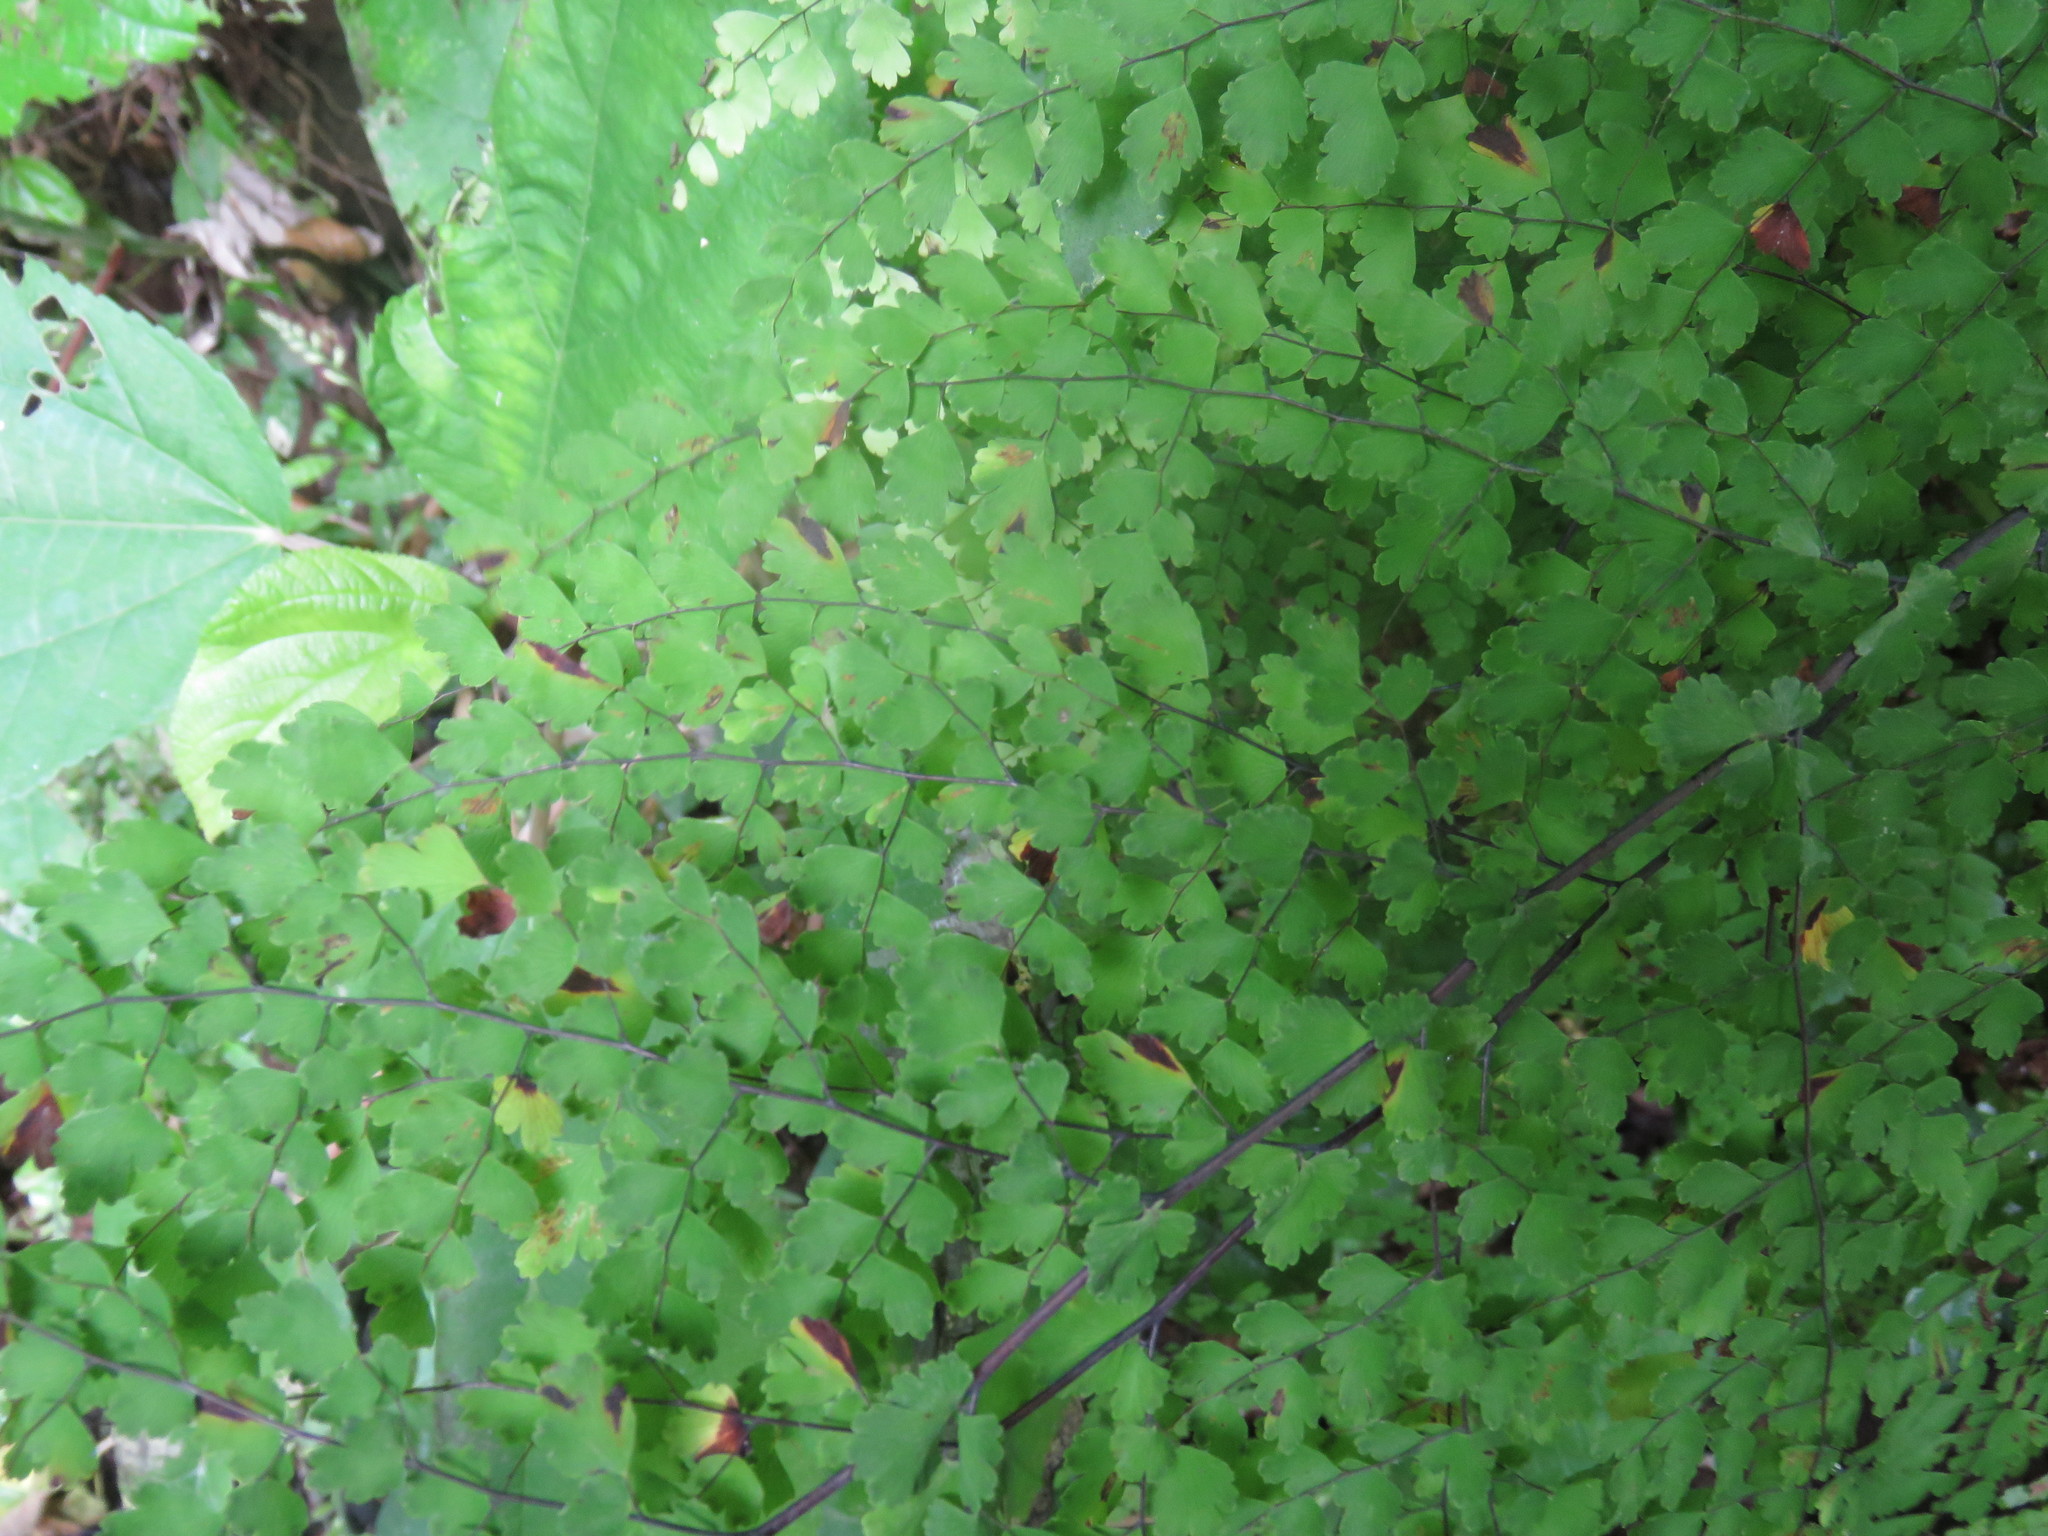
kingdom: Plantae
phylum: Tracheophyta
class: Polypodiopsida
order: Polypodiales
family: Pteridaceae
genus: Adiantum
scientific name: Adiantum concinnum
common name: Brittle maidenhair fern
